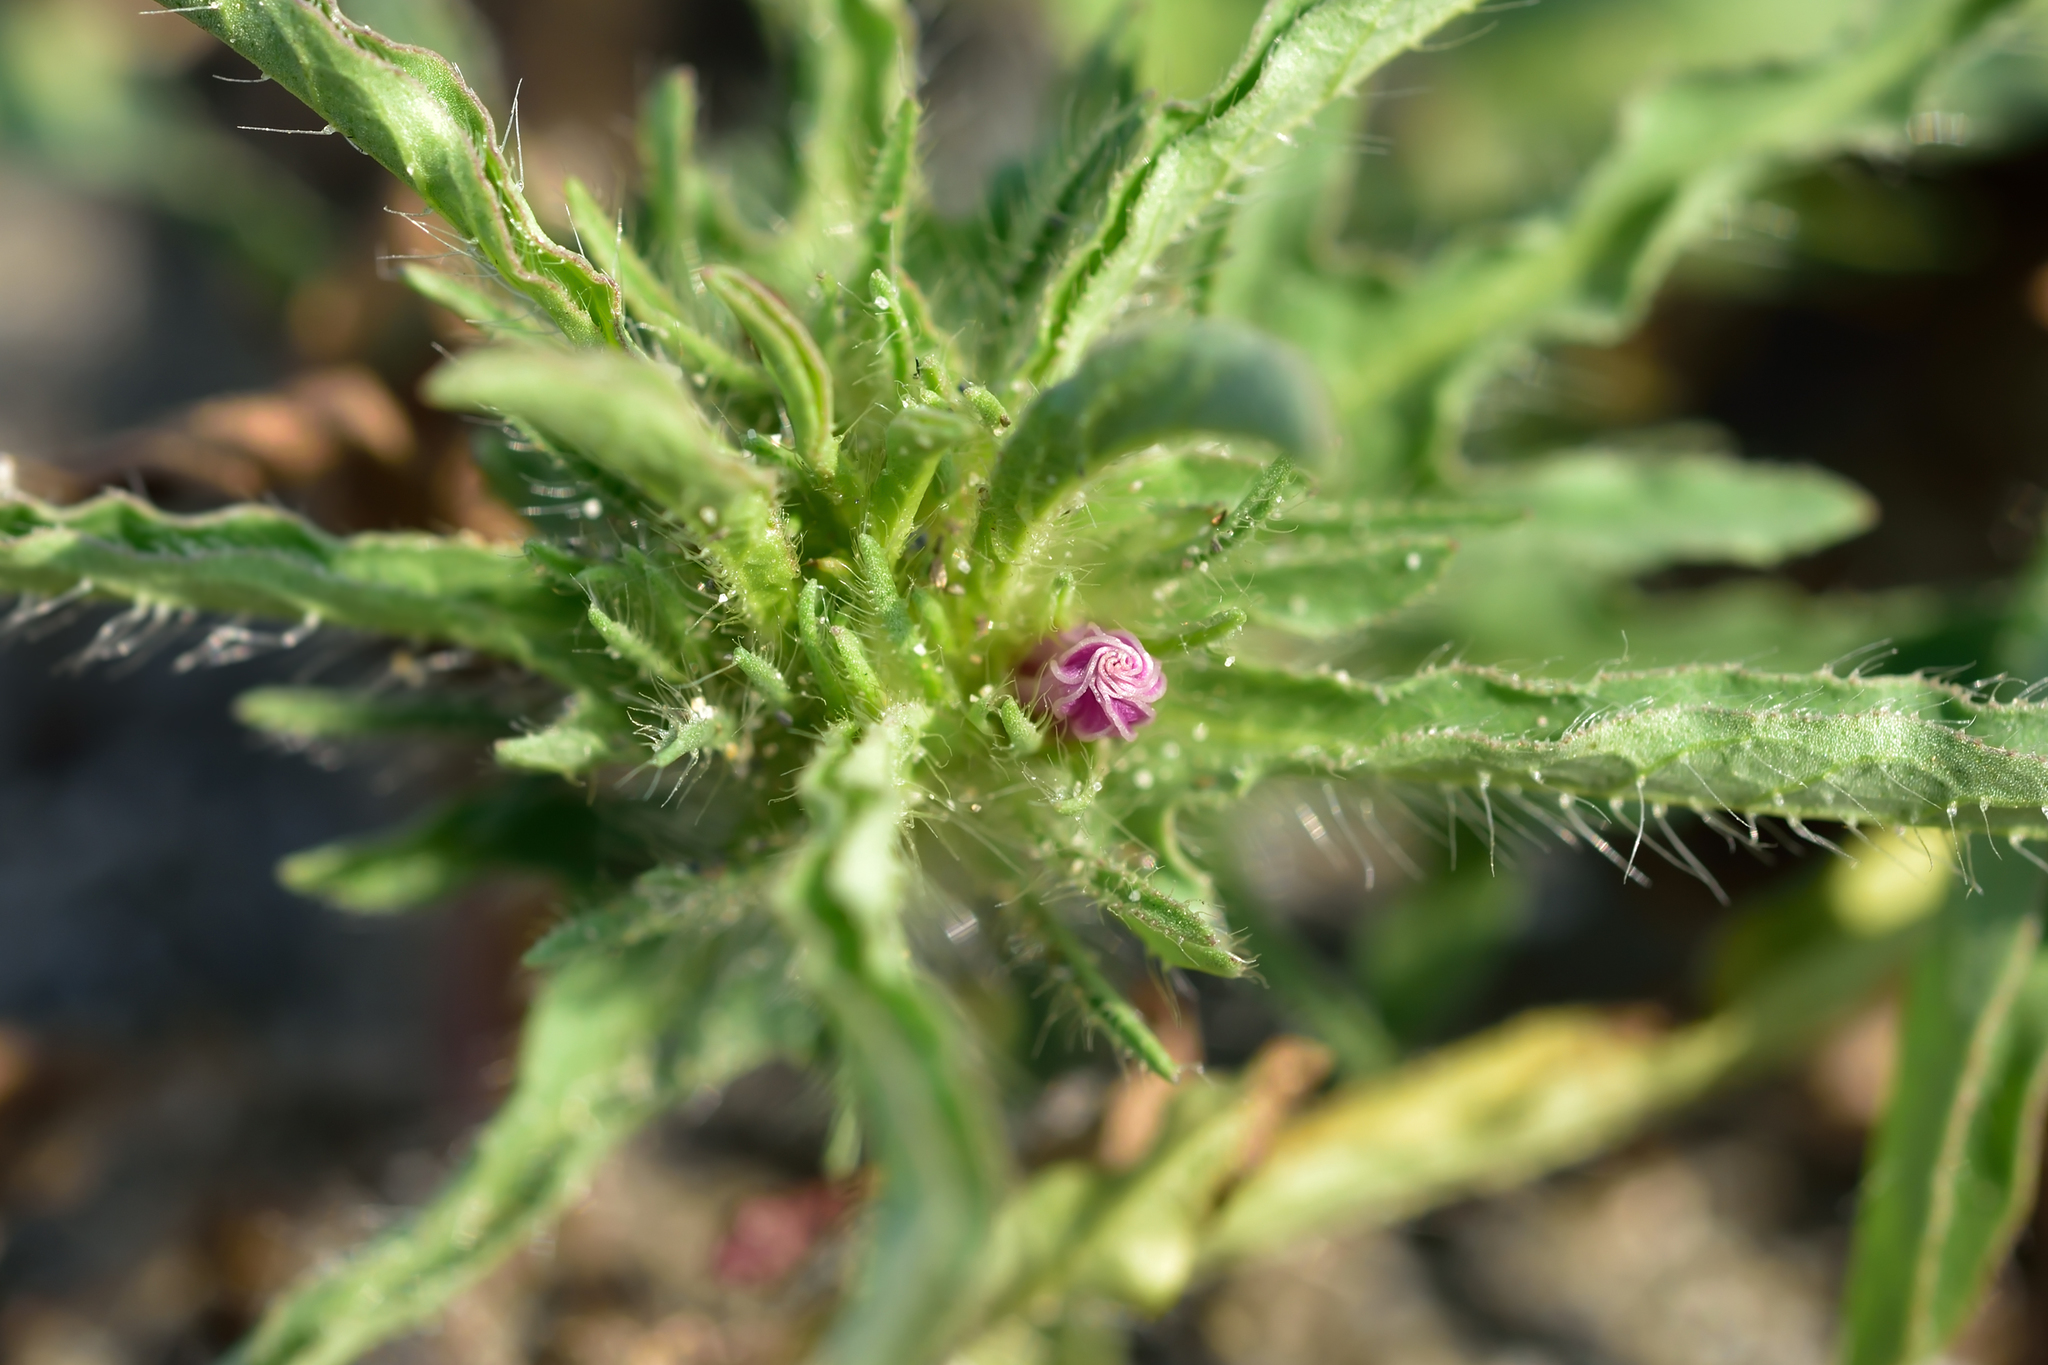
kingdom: Plantae
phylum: Tracheophyta
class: Magnoliopsida
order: Solanales
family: Convolvulaceae
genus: Ipomoea
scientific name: Ipomoea polymorpha
